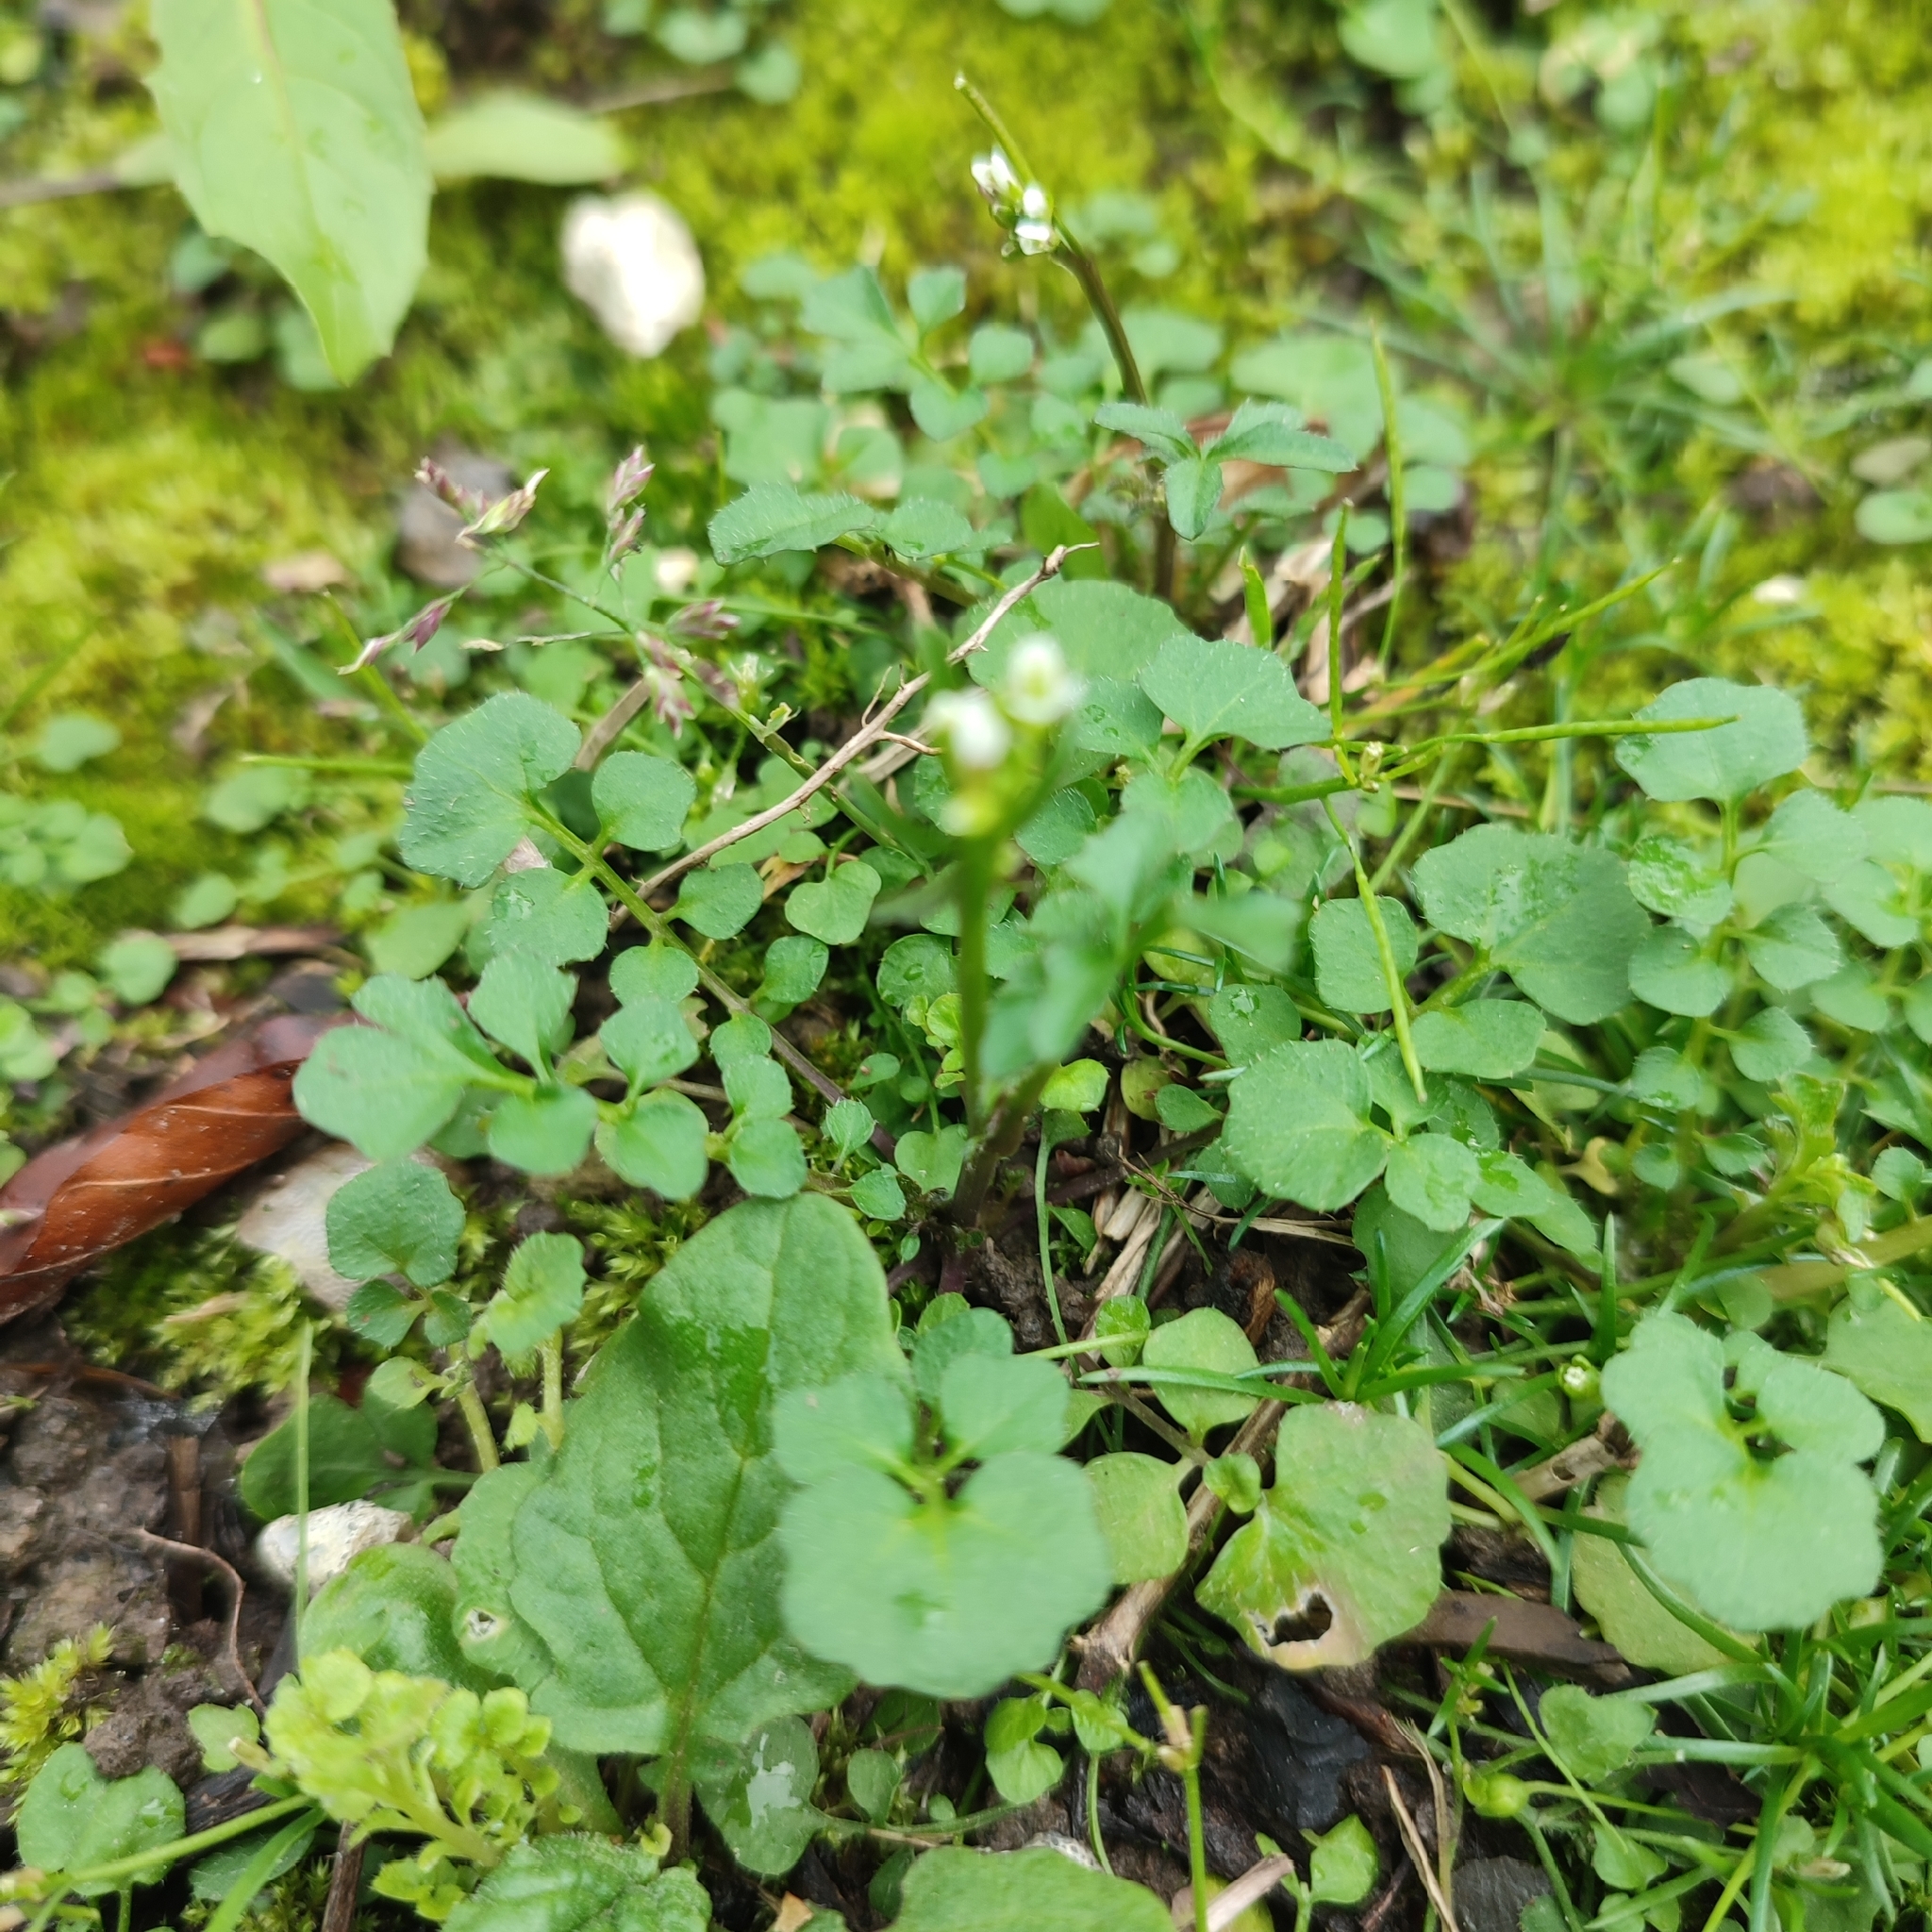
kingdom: Plantae
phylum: Tracheophyta
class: Magnoliopsida
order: Brassicales
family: Brassicaceae
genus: Cardamine
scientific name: Cardamine hirsuta
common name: Hairy bittercress
